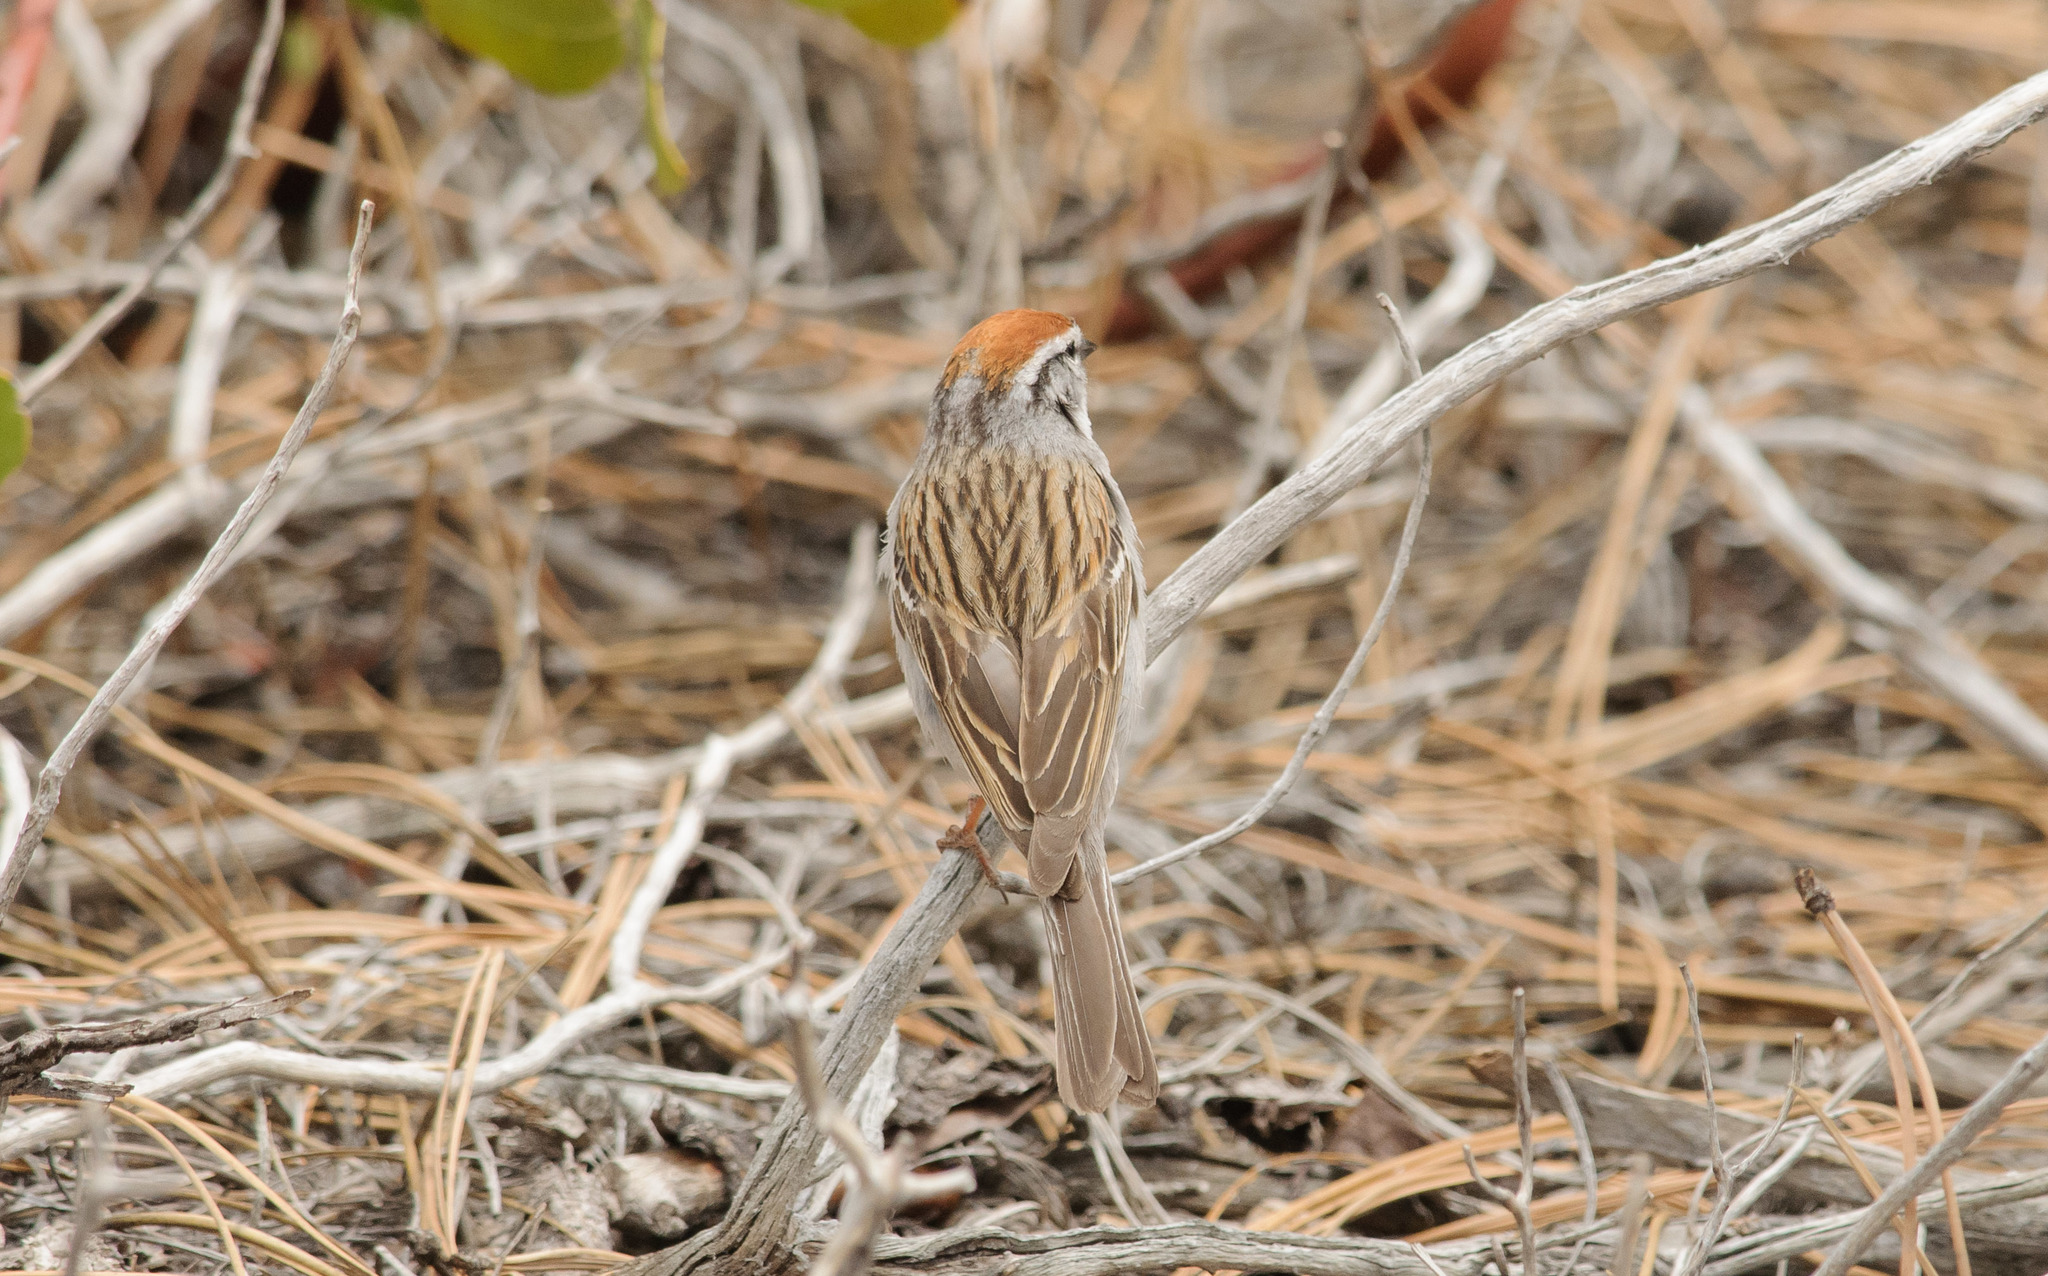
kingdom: Animalia
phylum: Chordata
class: Aves
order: Passeriformes
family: Passerellidae
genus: Spizella
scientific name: Spizella passerina
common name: Chipping sparrow
